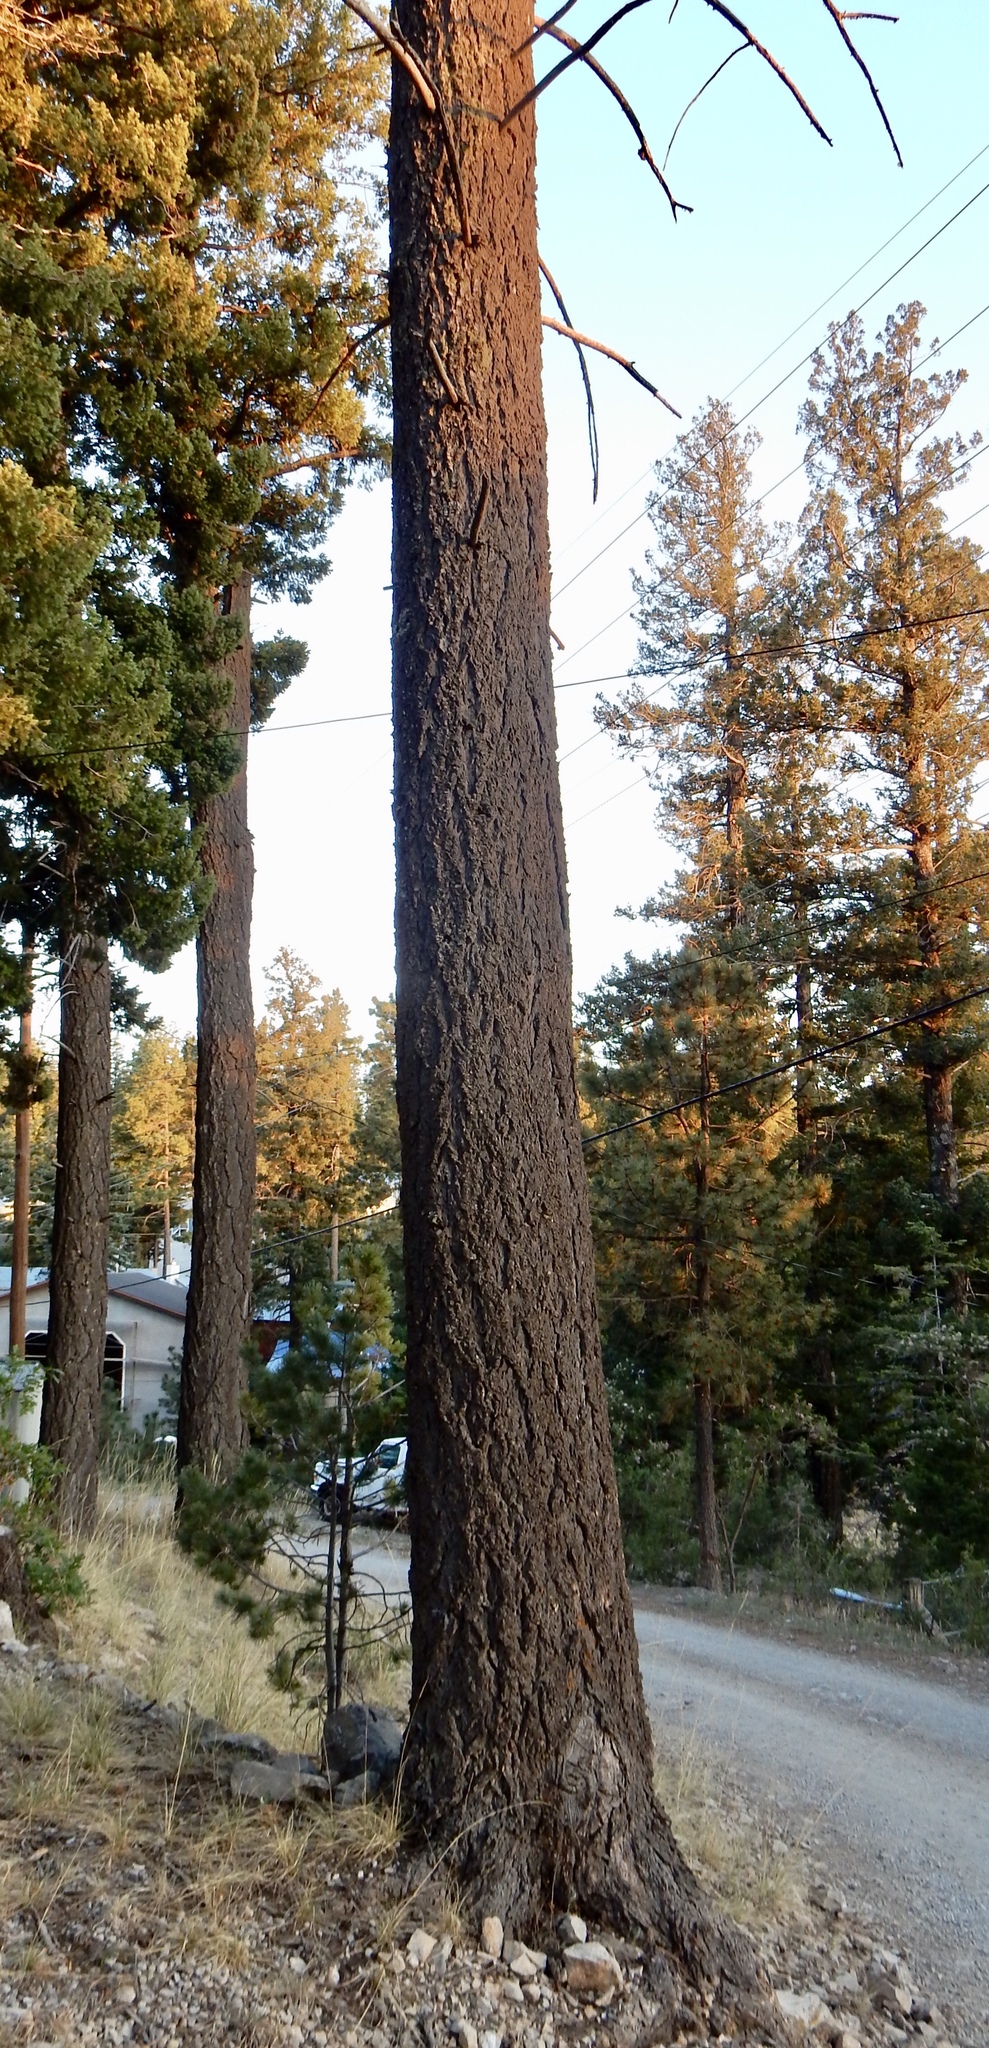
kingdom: Plantae
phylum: Tracheophyta
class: Pinopsida
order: Pinales
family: Pinaceae
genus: Pseudotsuga
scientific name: Pseudotsuga menziesii
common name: Douglas fir
